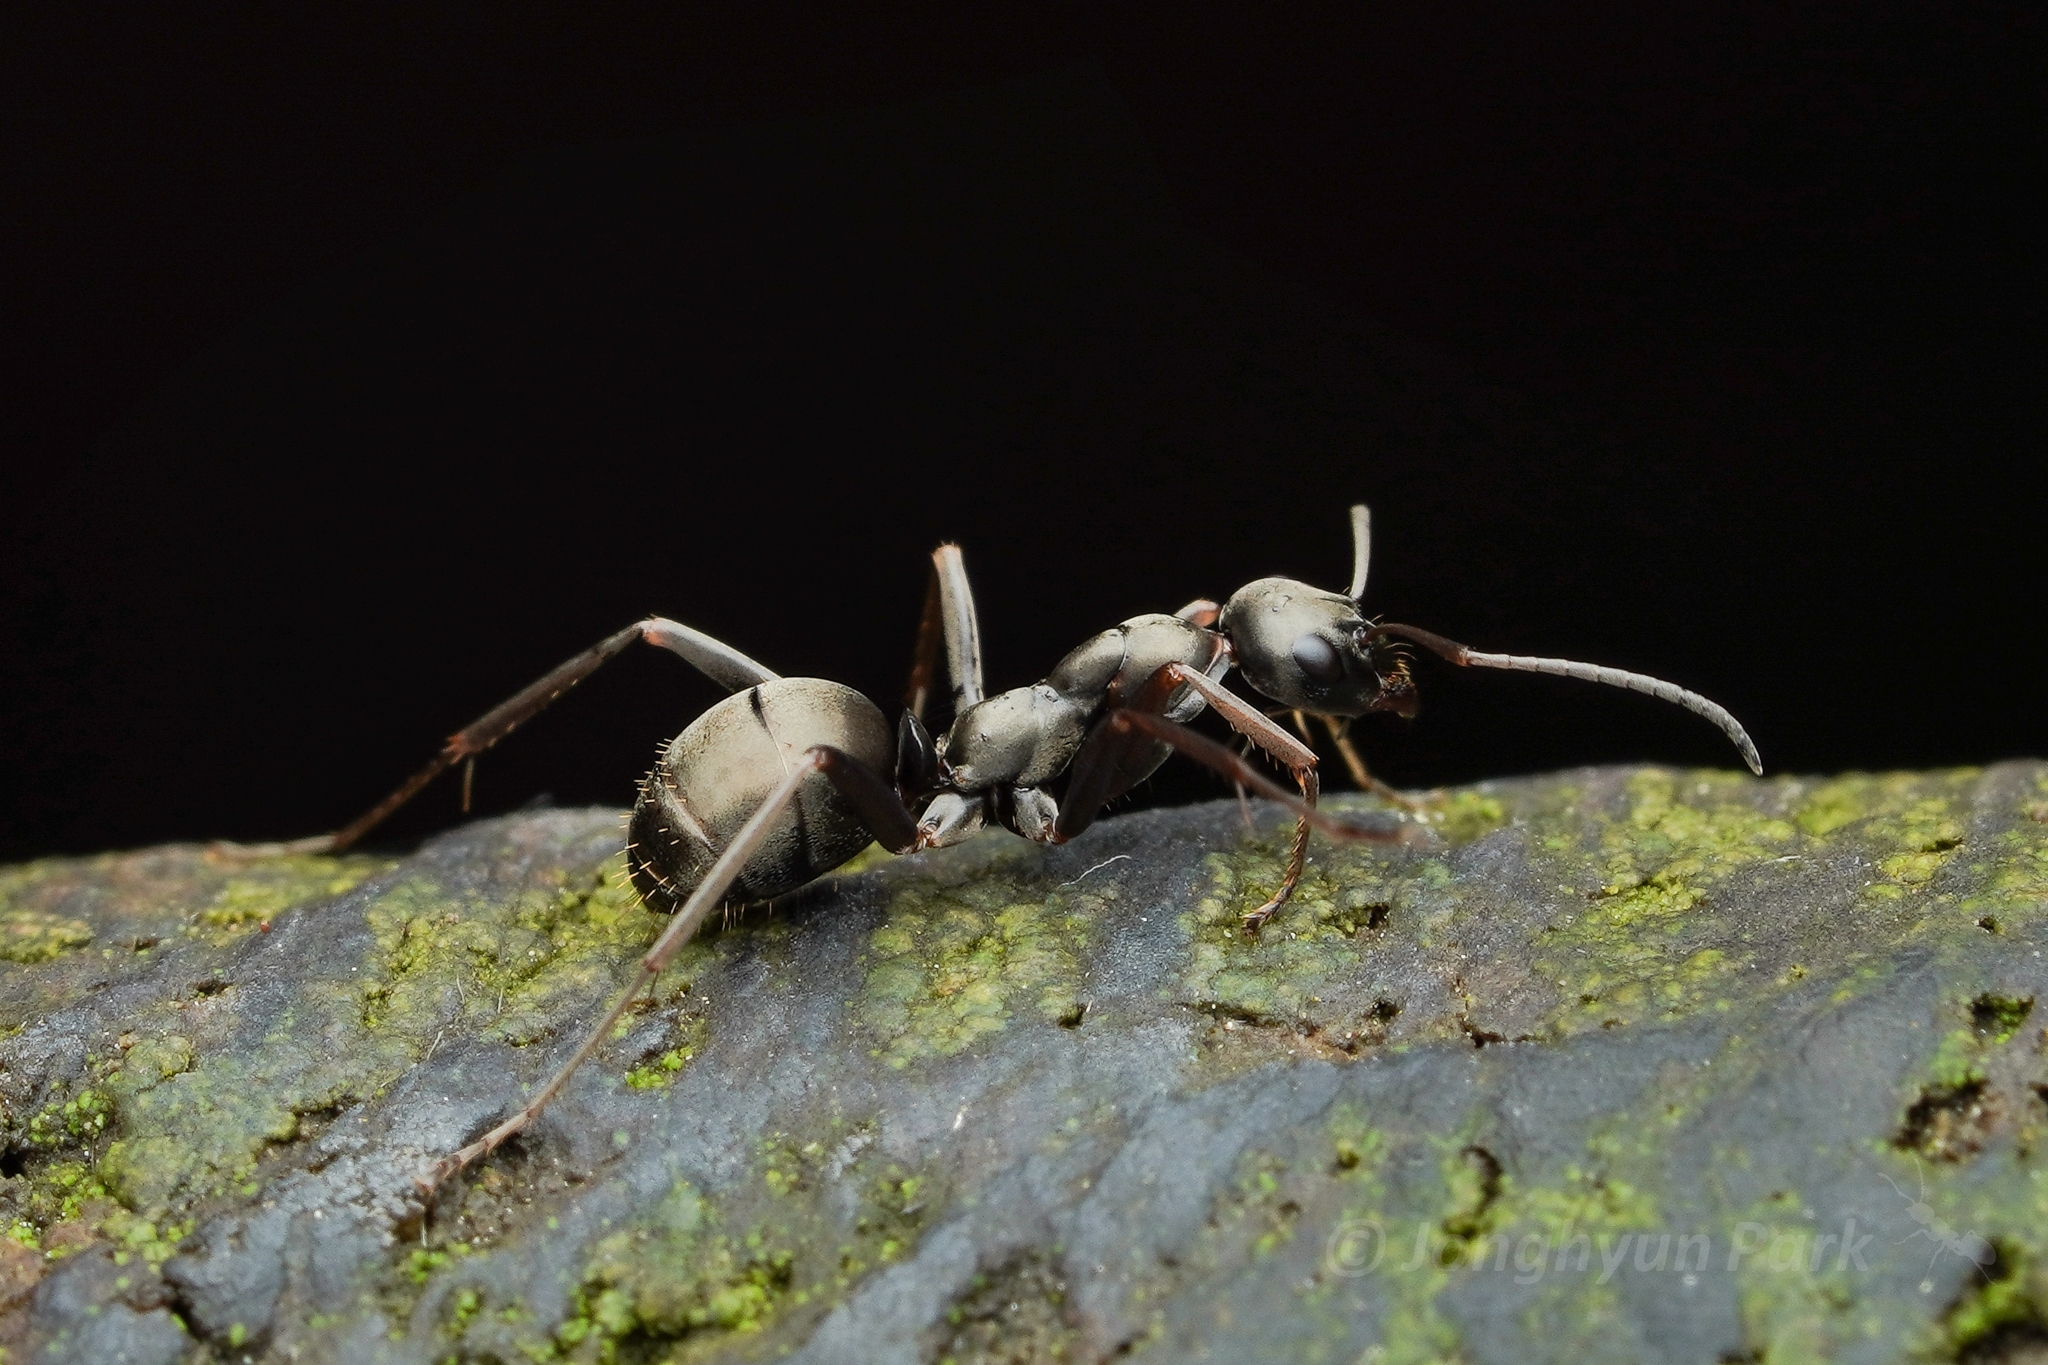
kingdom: Animalia
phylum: Arthropoda
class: Insecta
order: Hymenoptera
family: Formicidae
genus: Formica
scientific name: Formica hayashi
